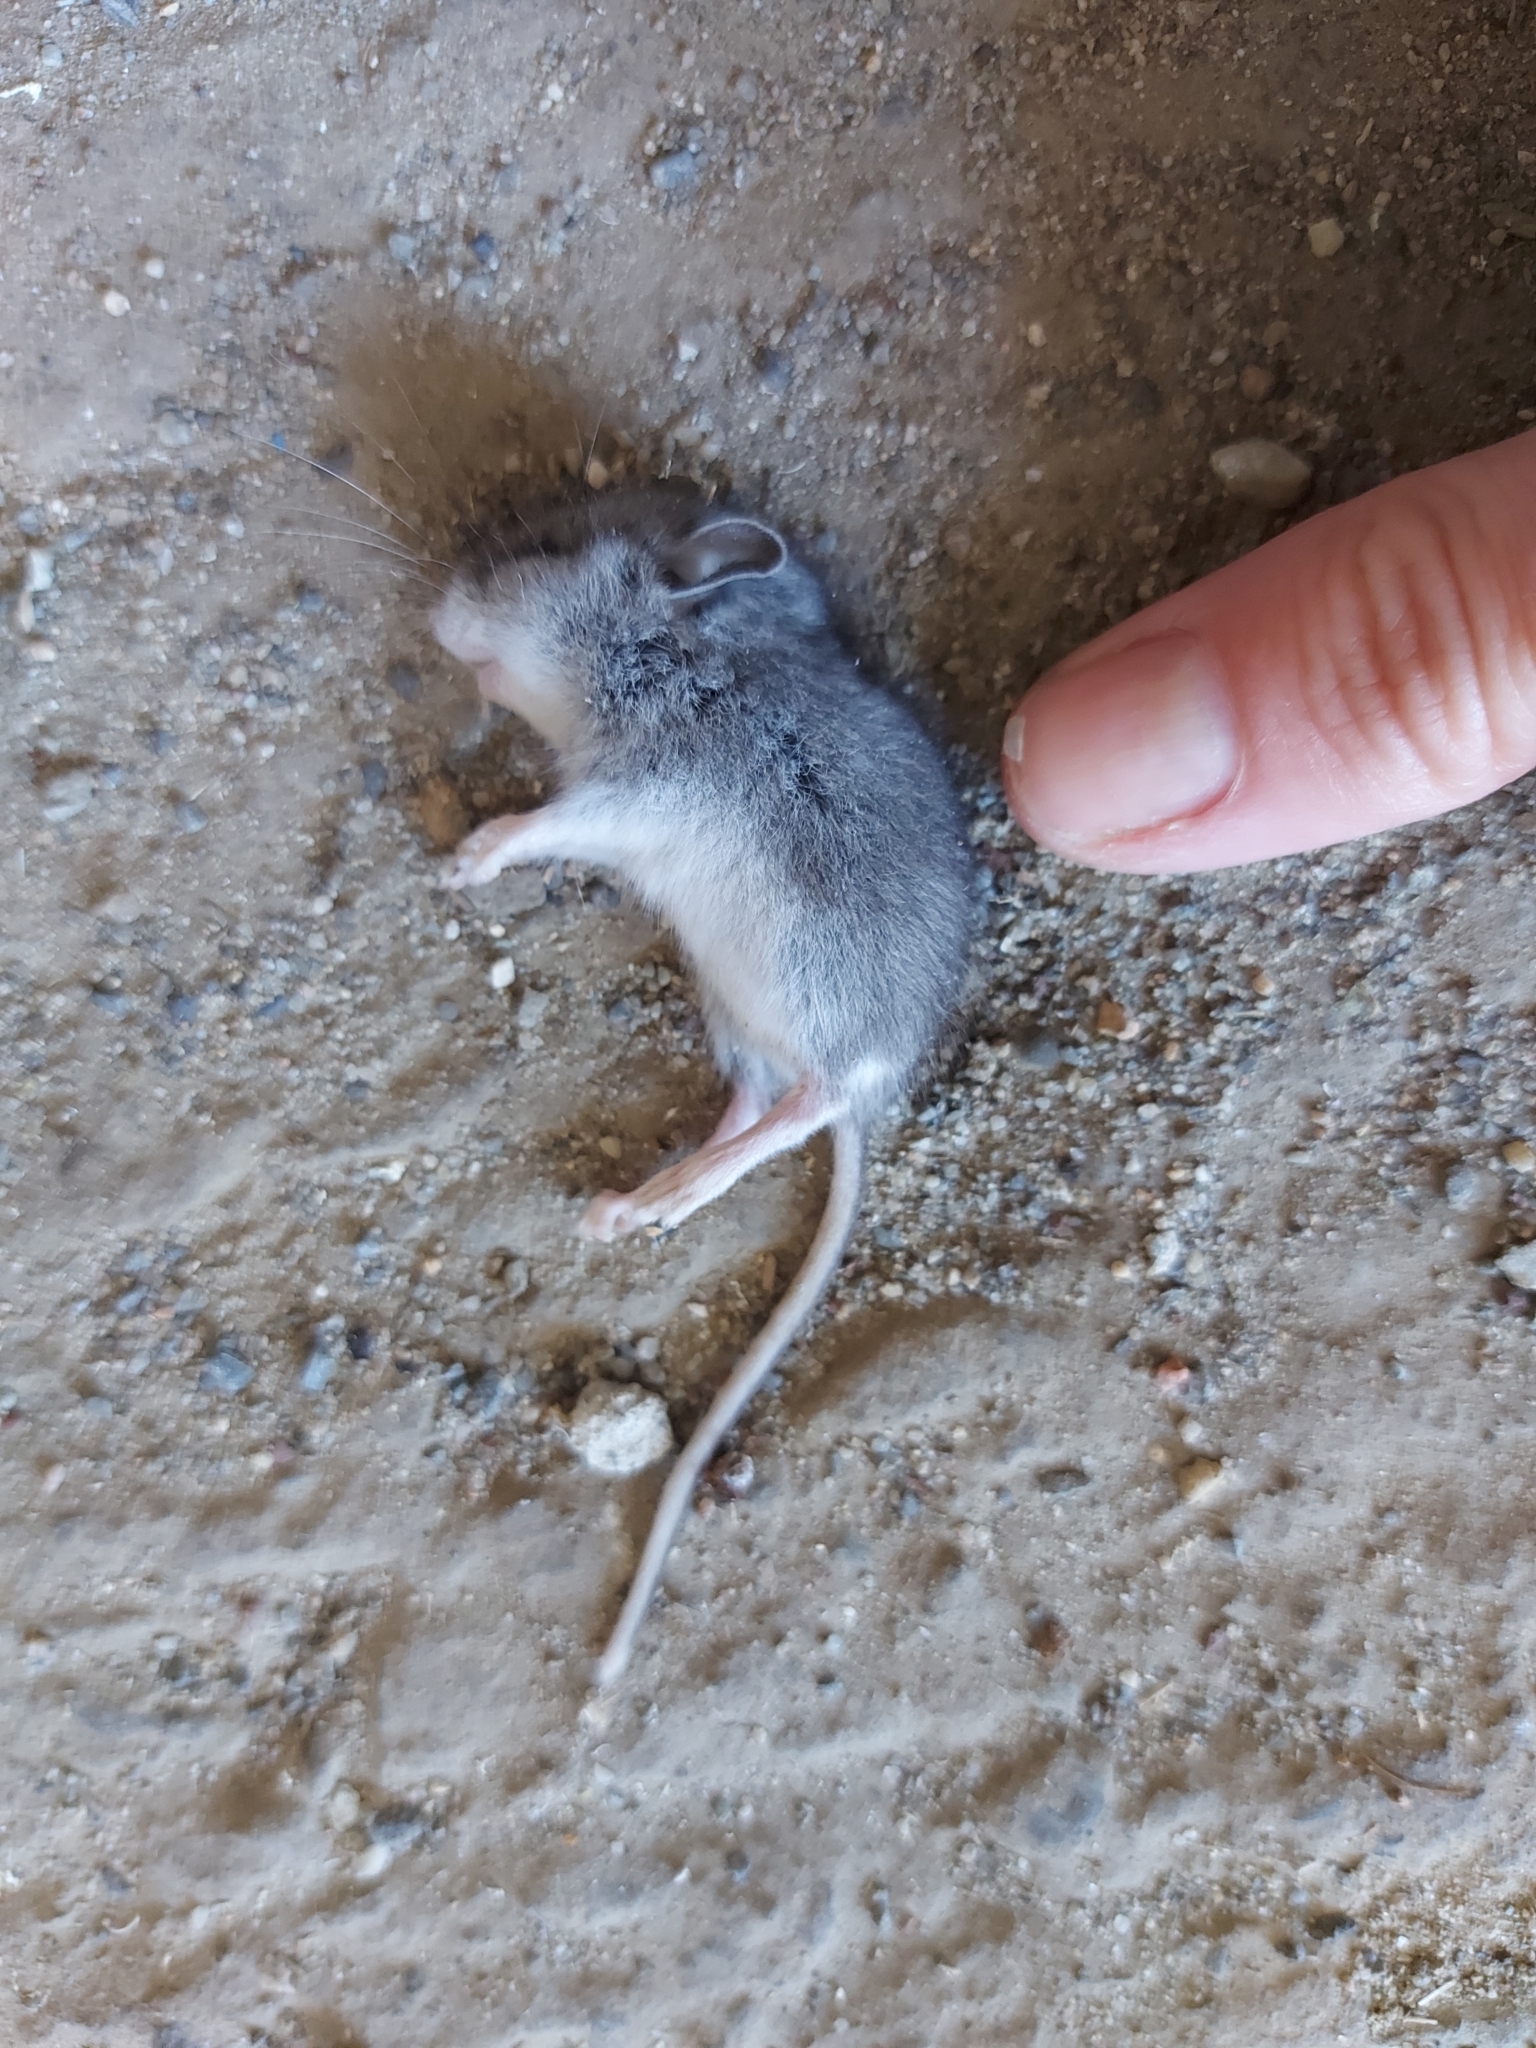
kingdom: Animalia
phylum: Chordata
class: Mammalia
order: Rodentia
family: Cricetidae
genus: Peromyscus
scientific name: Peromyscus maniculatus
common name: Deer mouse
